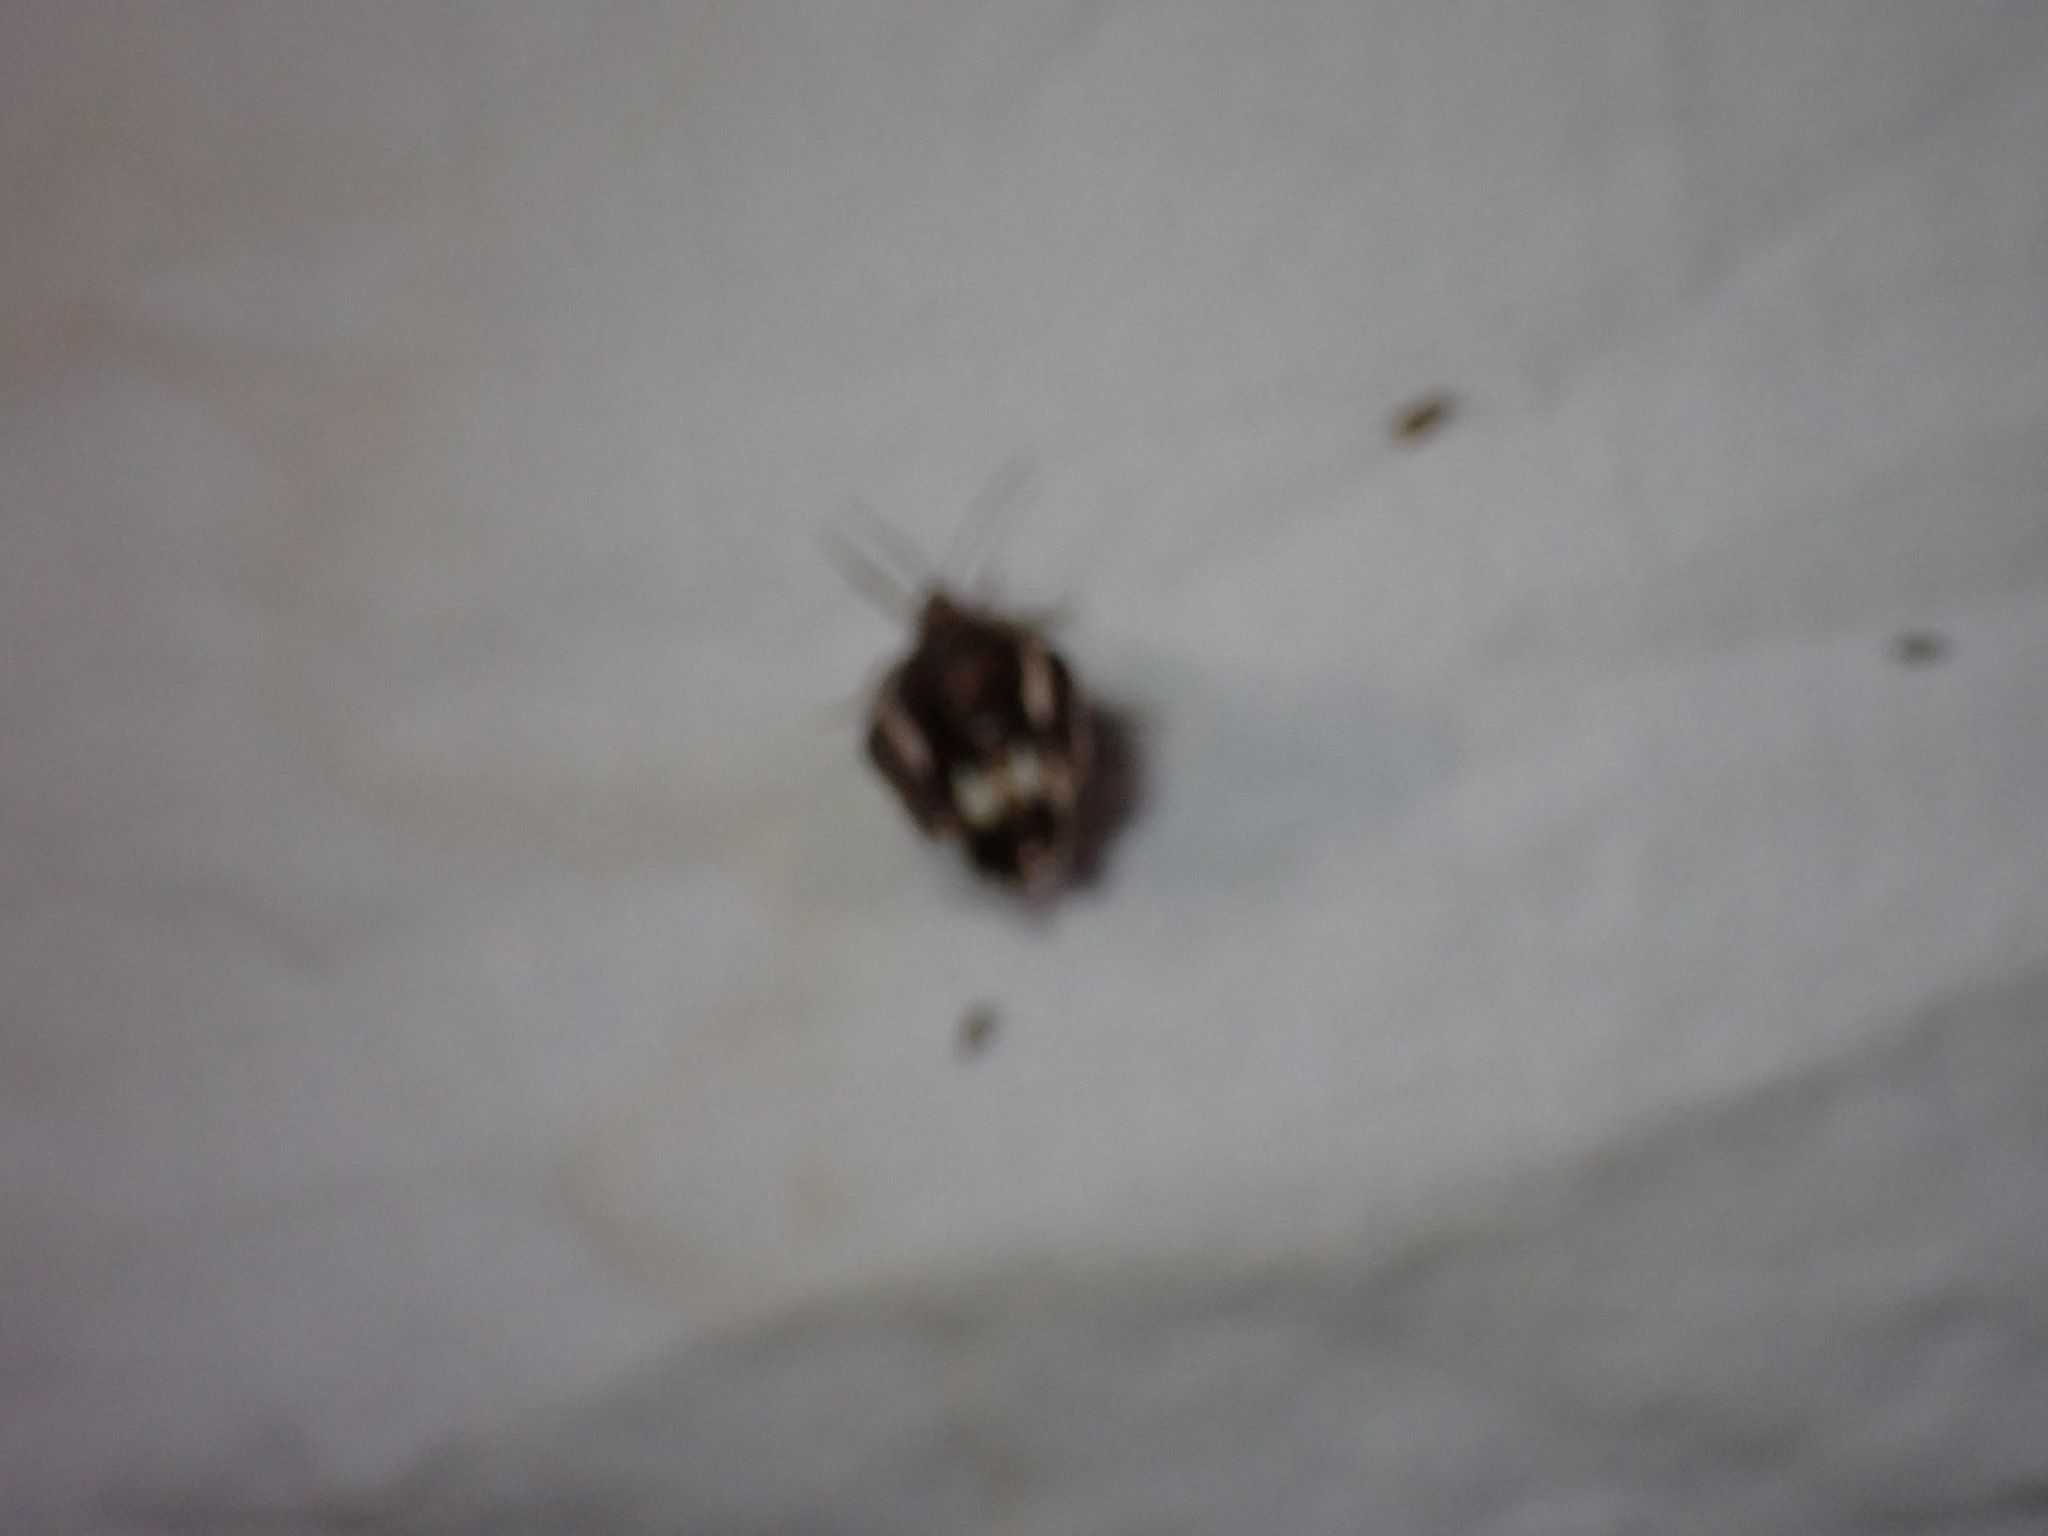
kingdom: Animalia
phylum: Arthropoda
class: Insecta
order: Lepidoptera
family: Erebidae
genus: Tyta
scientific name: Tyta luctuosa
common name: Four-spotted
